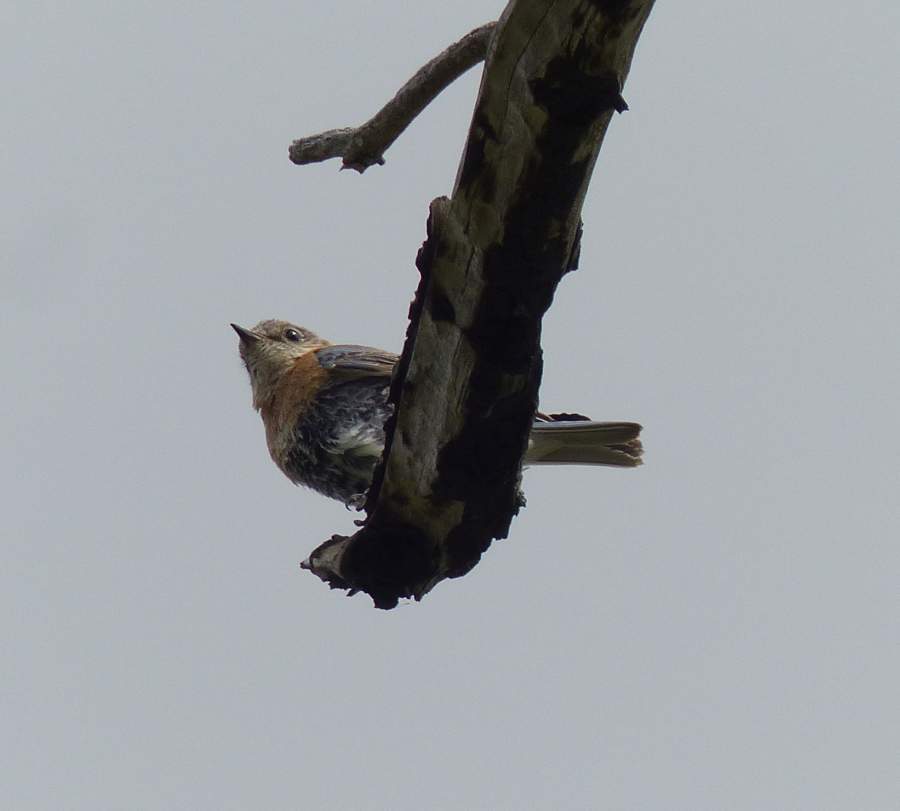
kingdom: Animalia
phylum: Chordata
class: Aves
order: Passeriformes
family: Turdidae
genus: Sialia
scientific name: Sialia sialis
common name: Eastern bluebird
